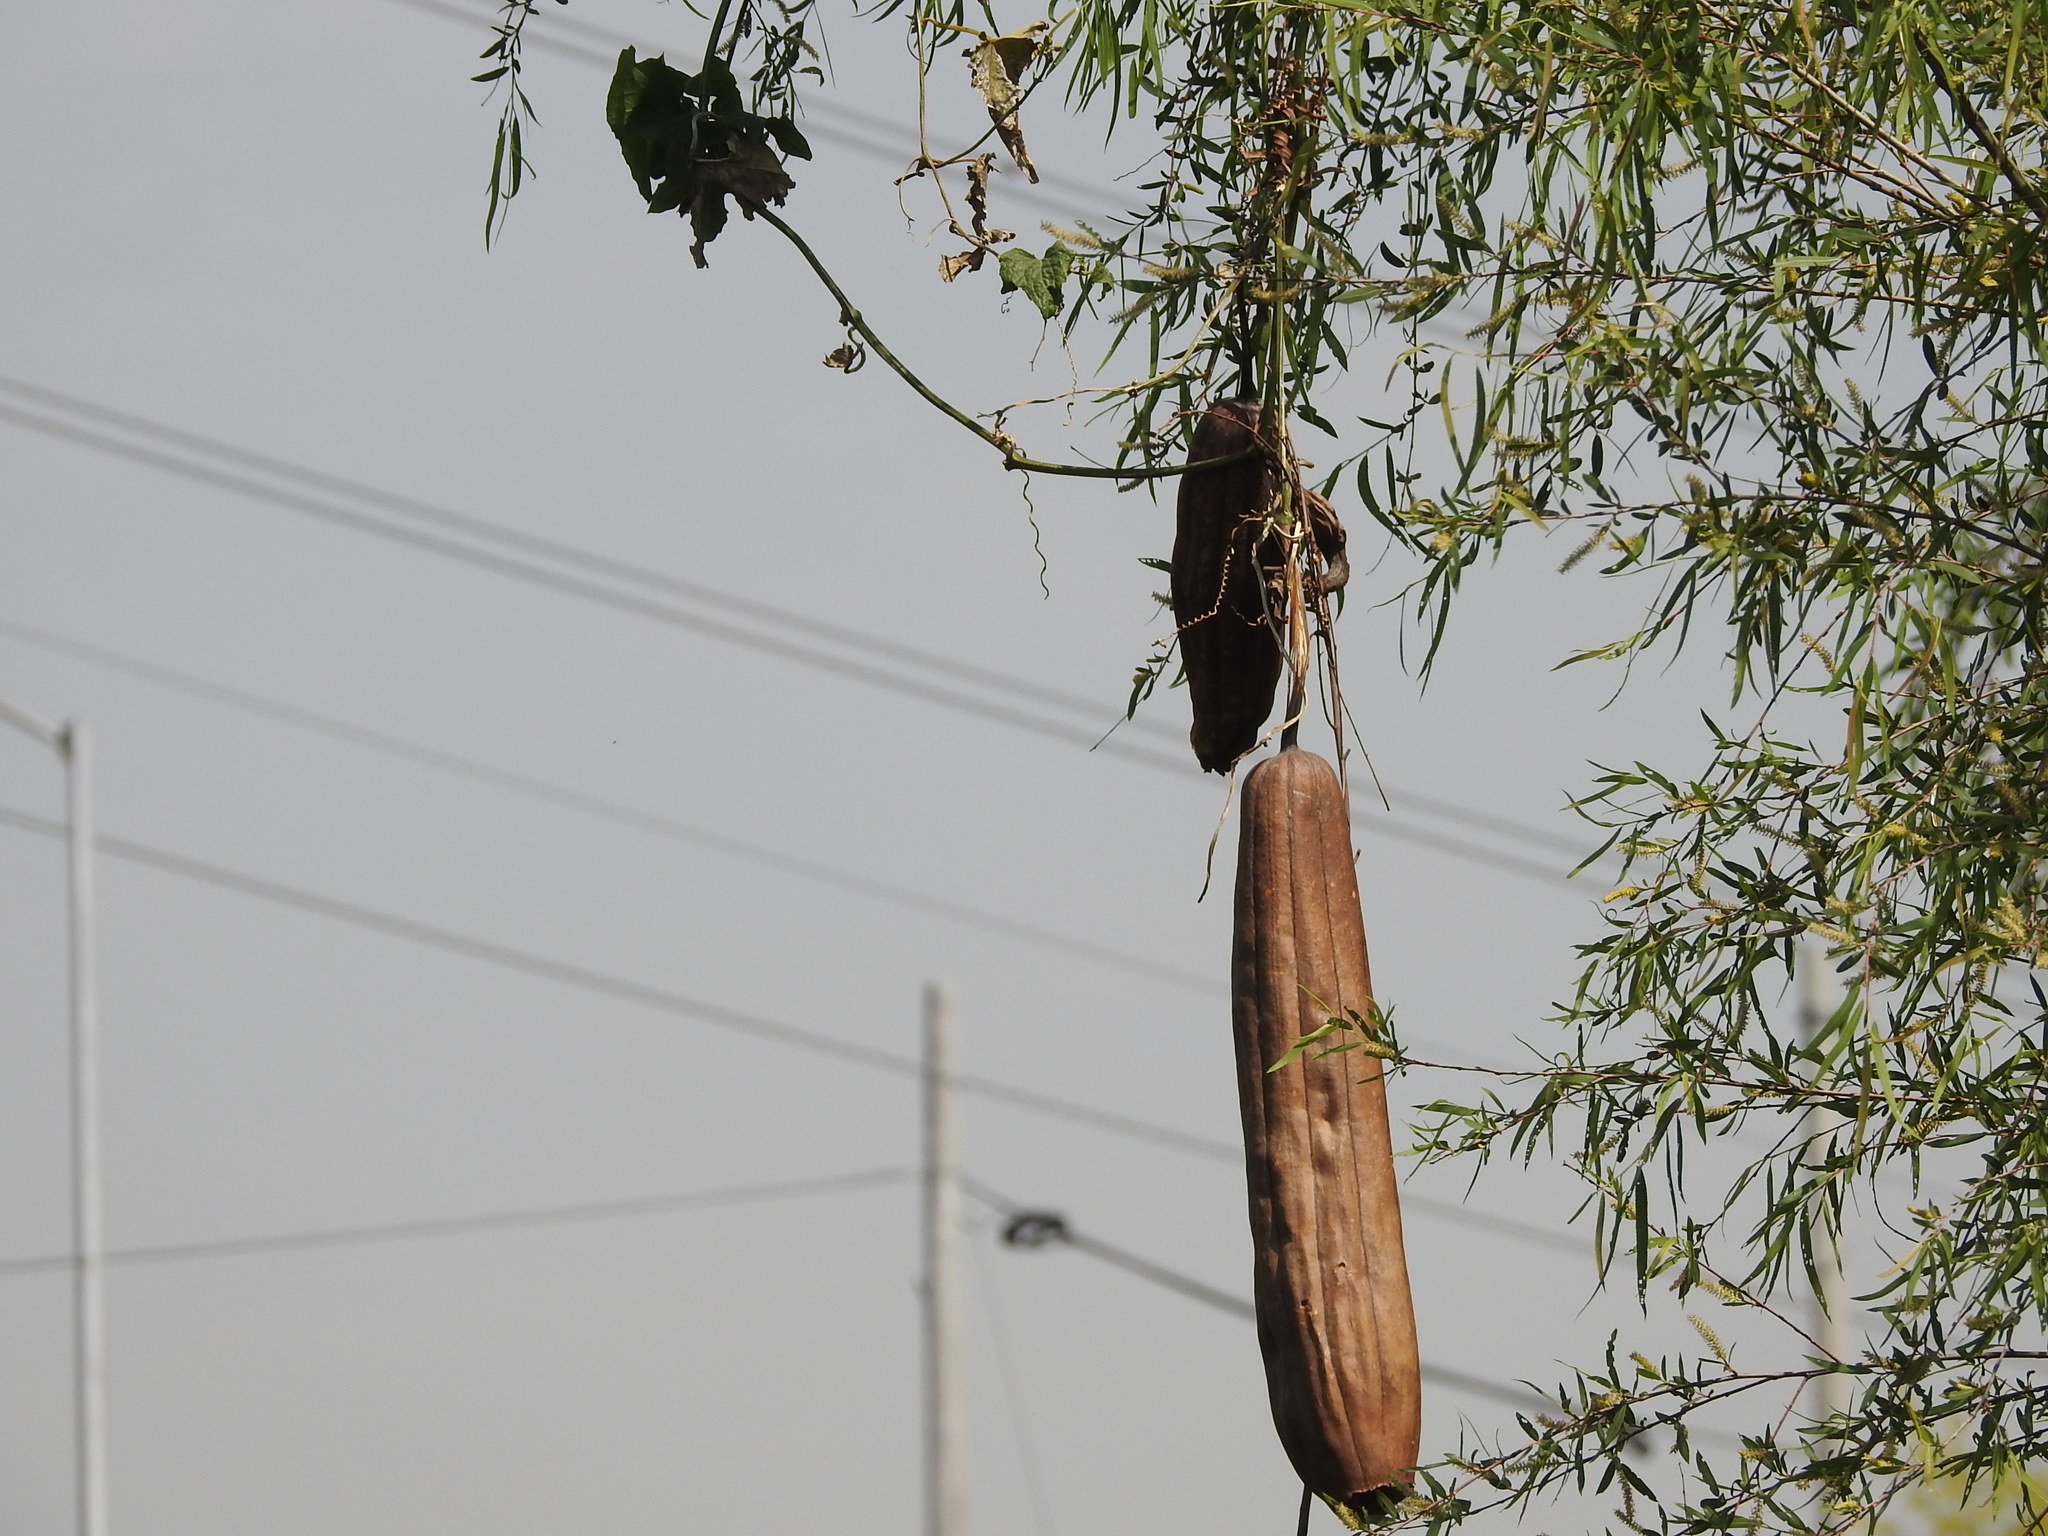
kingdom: Plantae
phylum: Tracheophyta
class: Magnoliopsida
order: Cucurbitales
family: Cucurbitaceae
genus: Luffa
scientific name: Luffa aegyptiaca
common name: Sponge gourd
